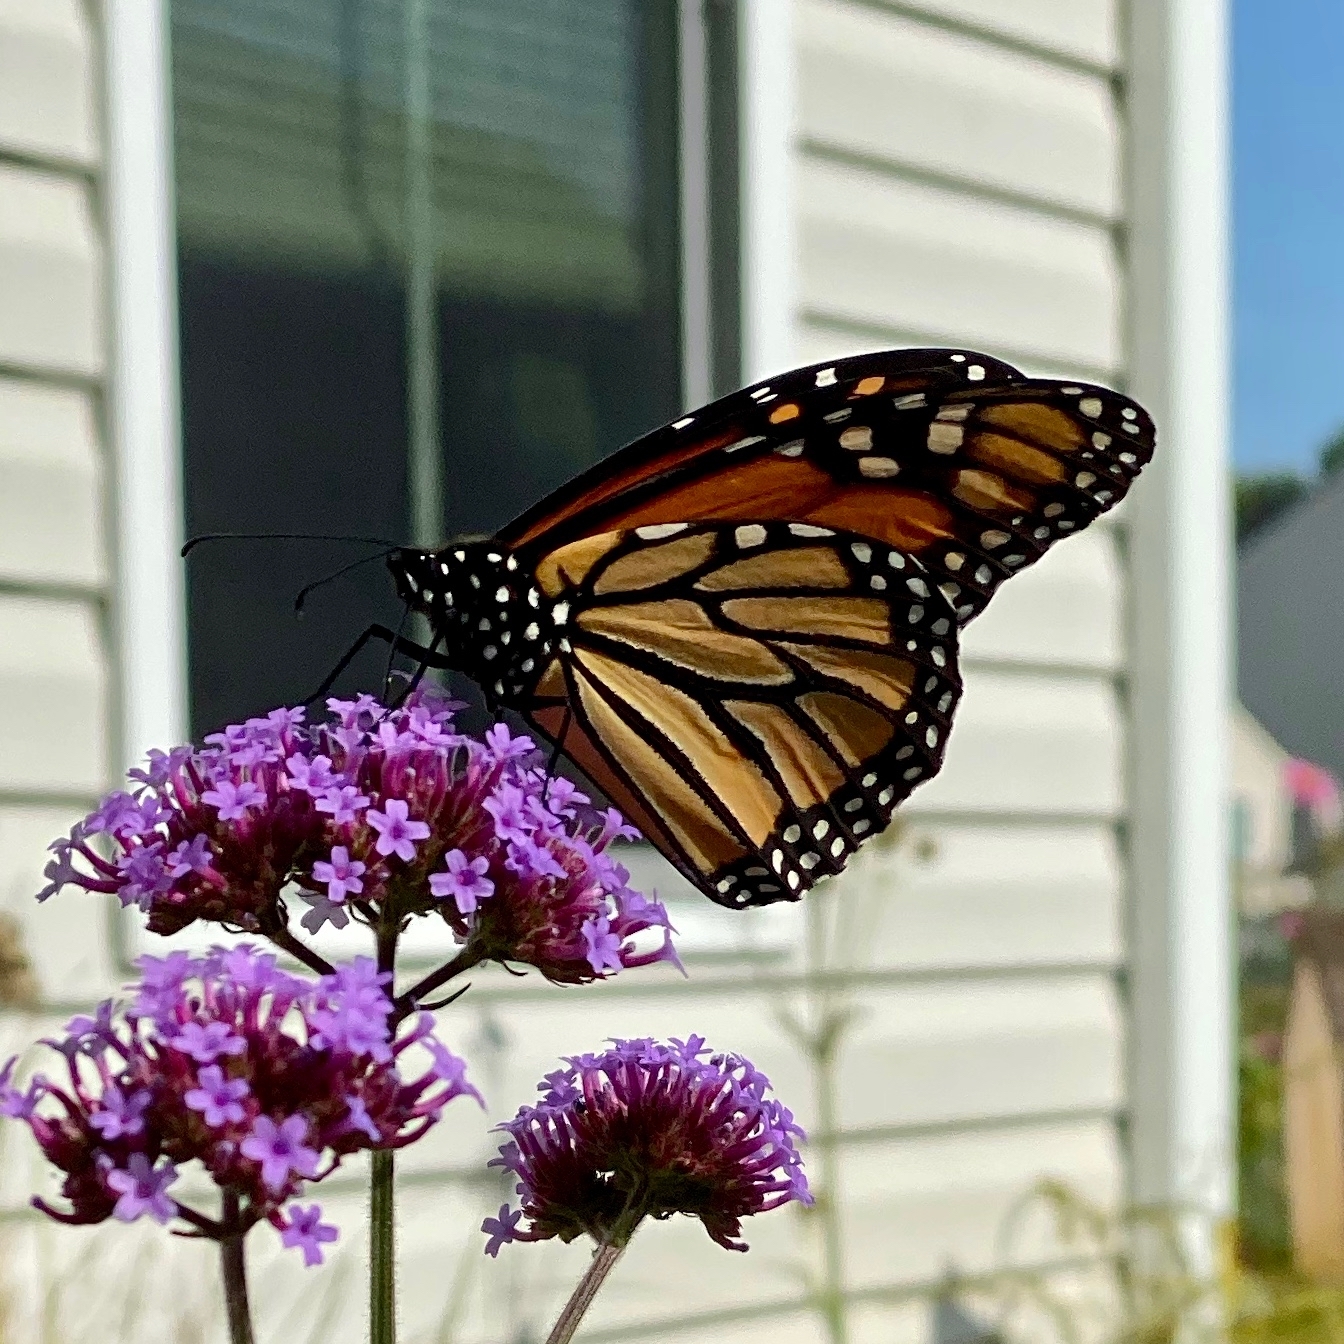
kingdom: Animalia
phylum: Arthropoda
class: Insecta
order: Lepidoptera
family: Nymphalidae
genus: Danaus
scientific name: Danaus plexippus
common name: Monarch
